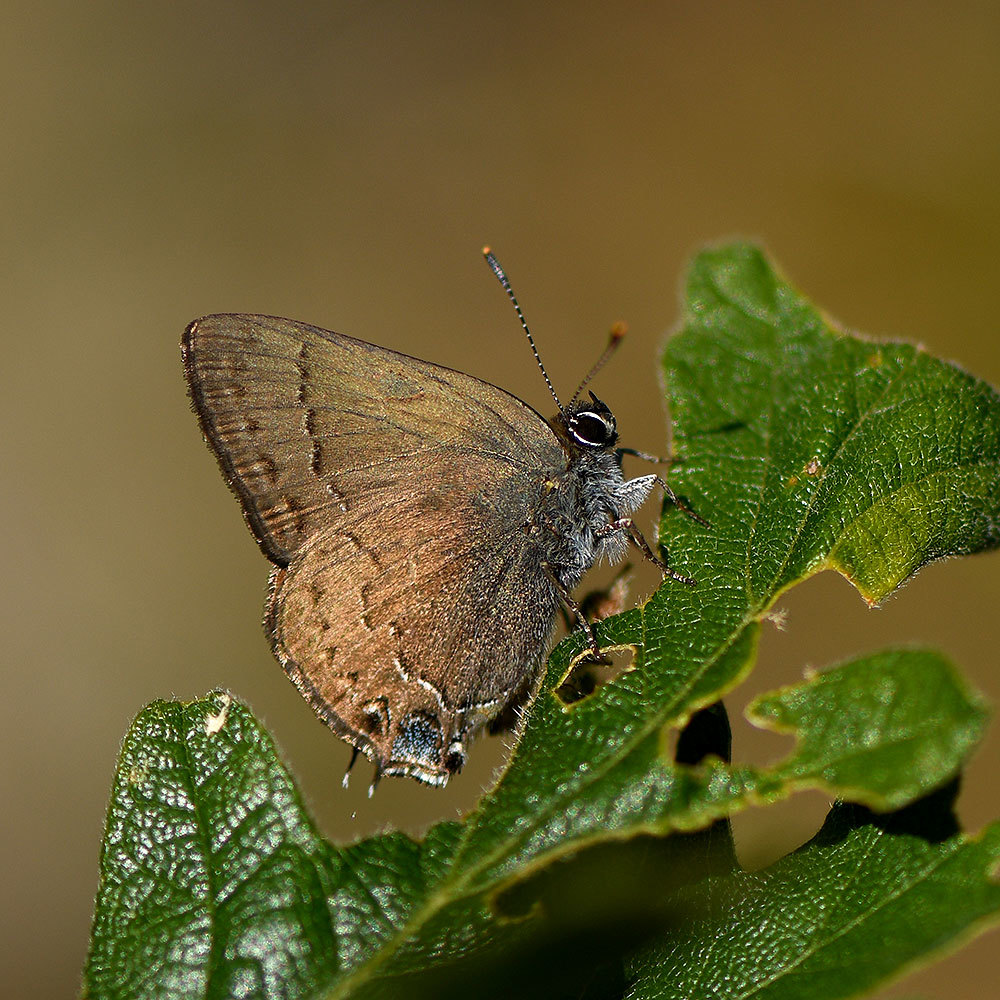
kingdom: Animalia
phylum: Arthropoda
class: Insecta
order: Lepidoptera
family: Lycaenidae
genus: Strymon
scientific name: Strymon saepium
